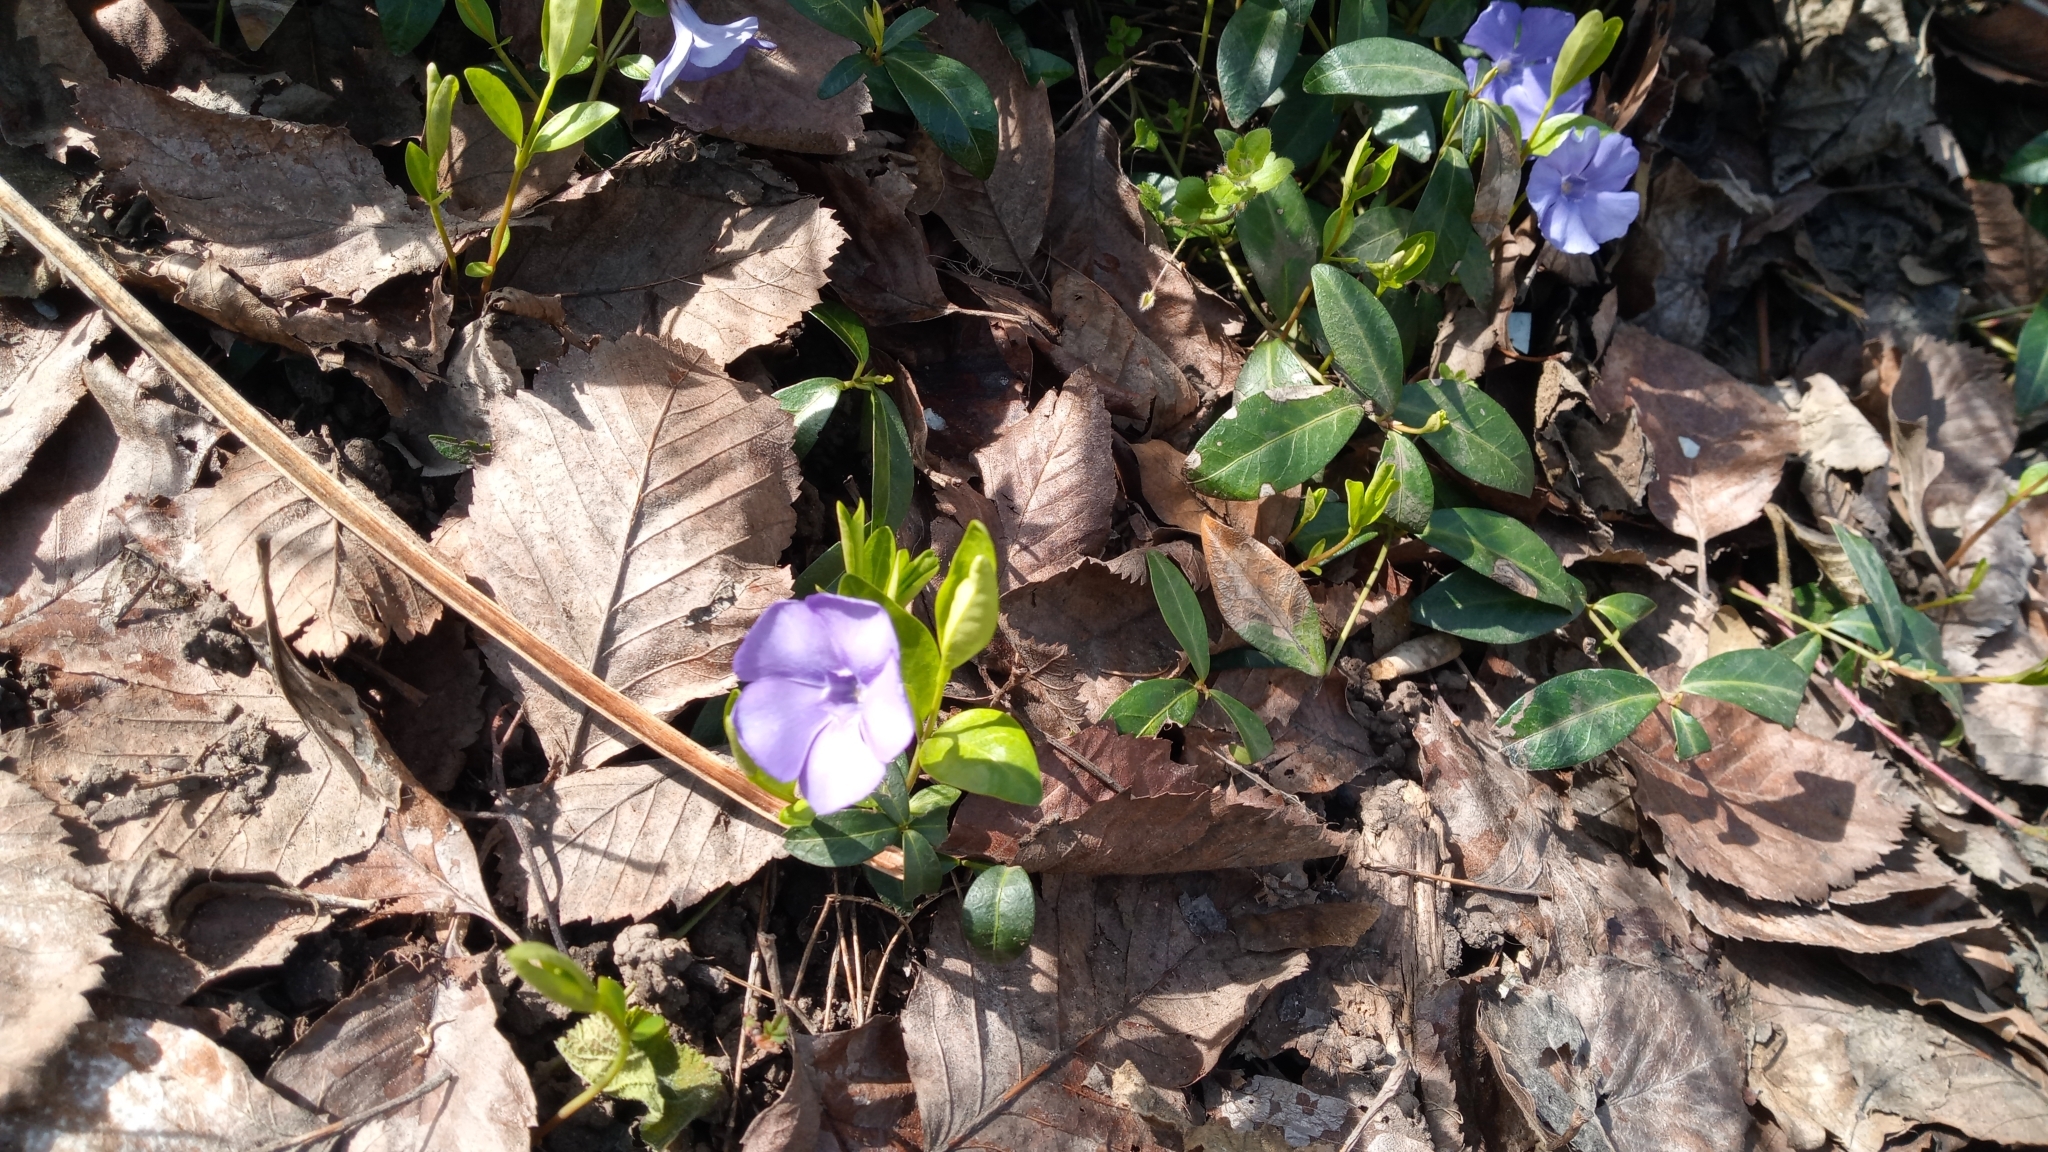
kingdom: Plantae
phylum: Tracheophyta
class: Magnoliopsida
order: Gentianales
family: Apocynaceae
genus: Vinca
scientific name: Vinca minor
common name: Lesser periwinkle
